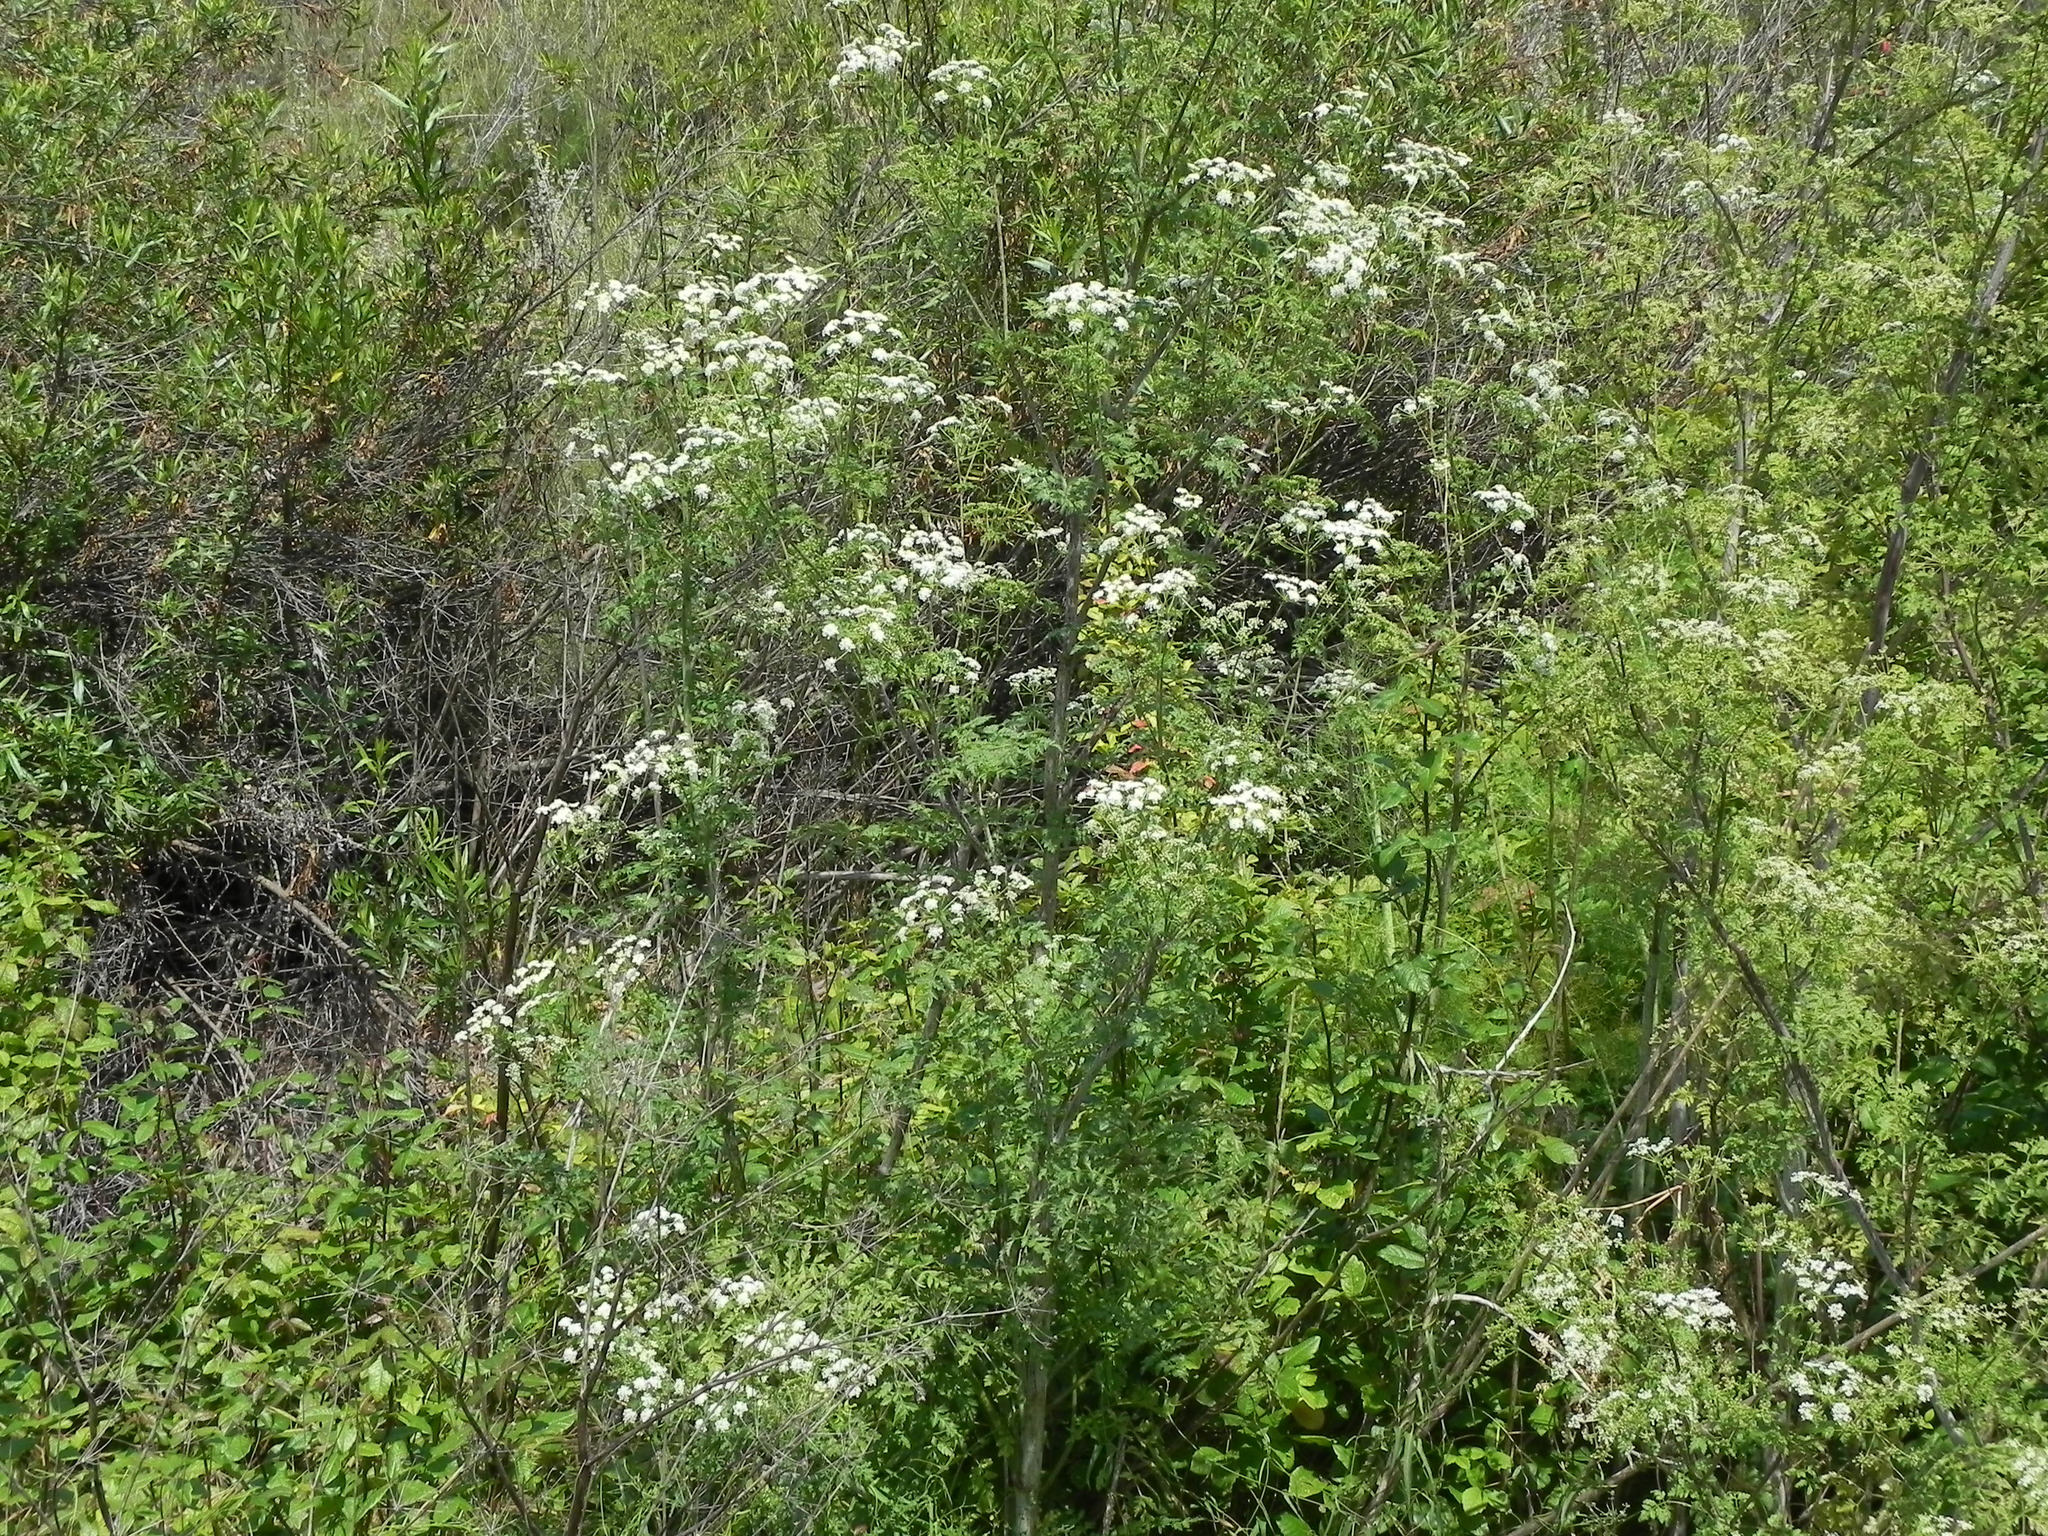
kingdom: Plantae
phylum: Tracheophyta
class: Magnoliopsida
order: Apiales
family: Apiaceae
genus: Conium
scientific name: Conium maculatum
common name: Hemlock
